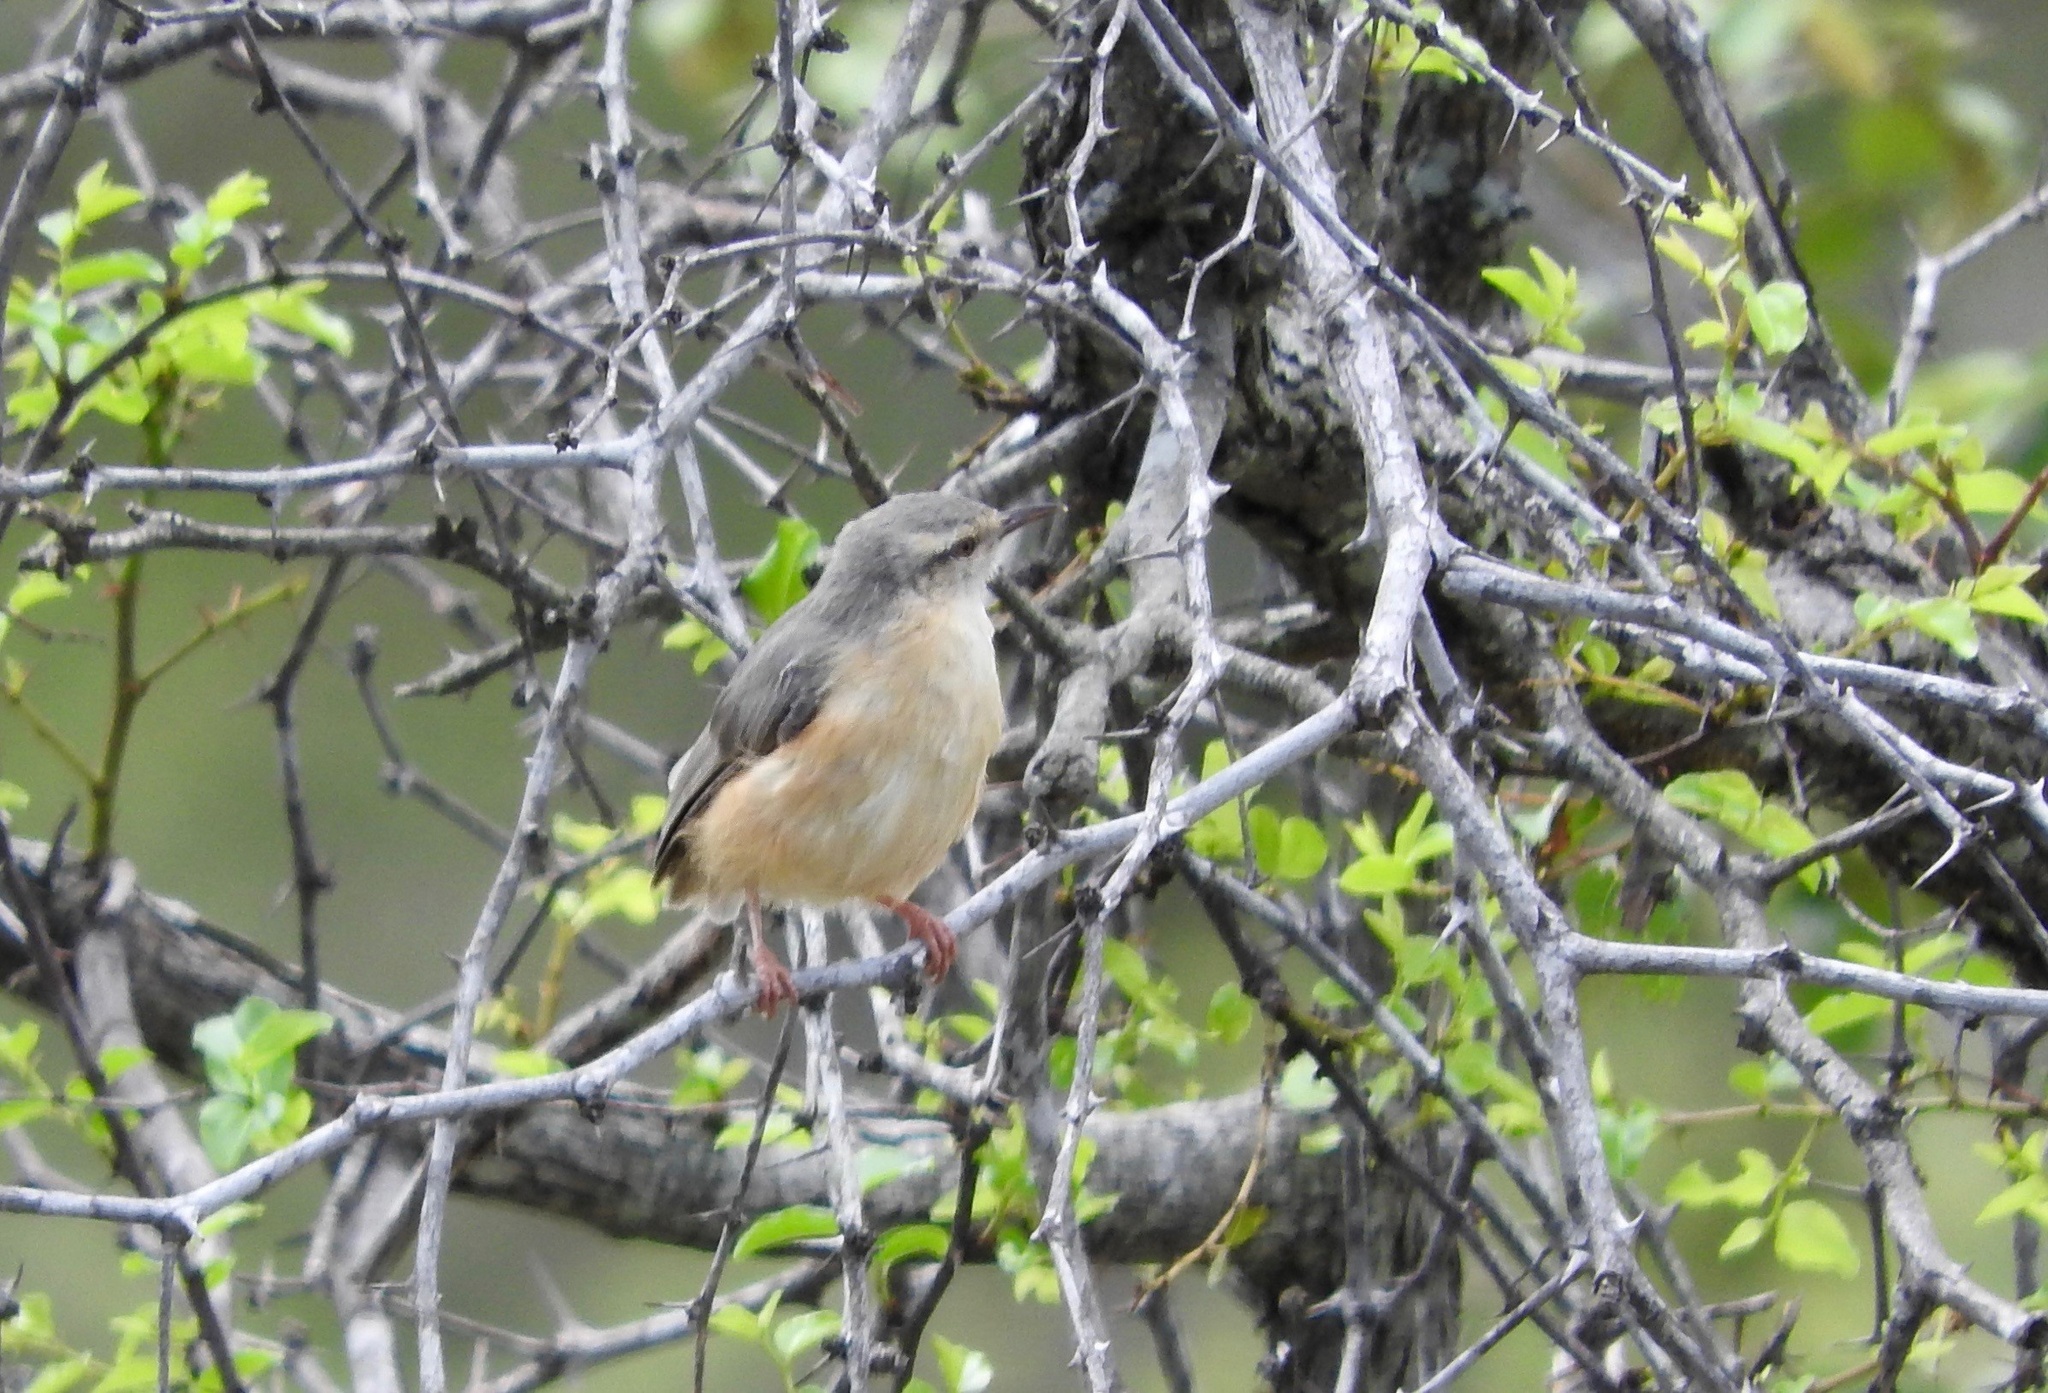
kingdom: Animalia
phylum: Chordata
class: Aves
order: Passeriformes
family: Macrosphenidae
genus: Sylvietta
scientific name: Sylvietta rufescens
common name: Long-billed crombec
